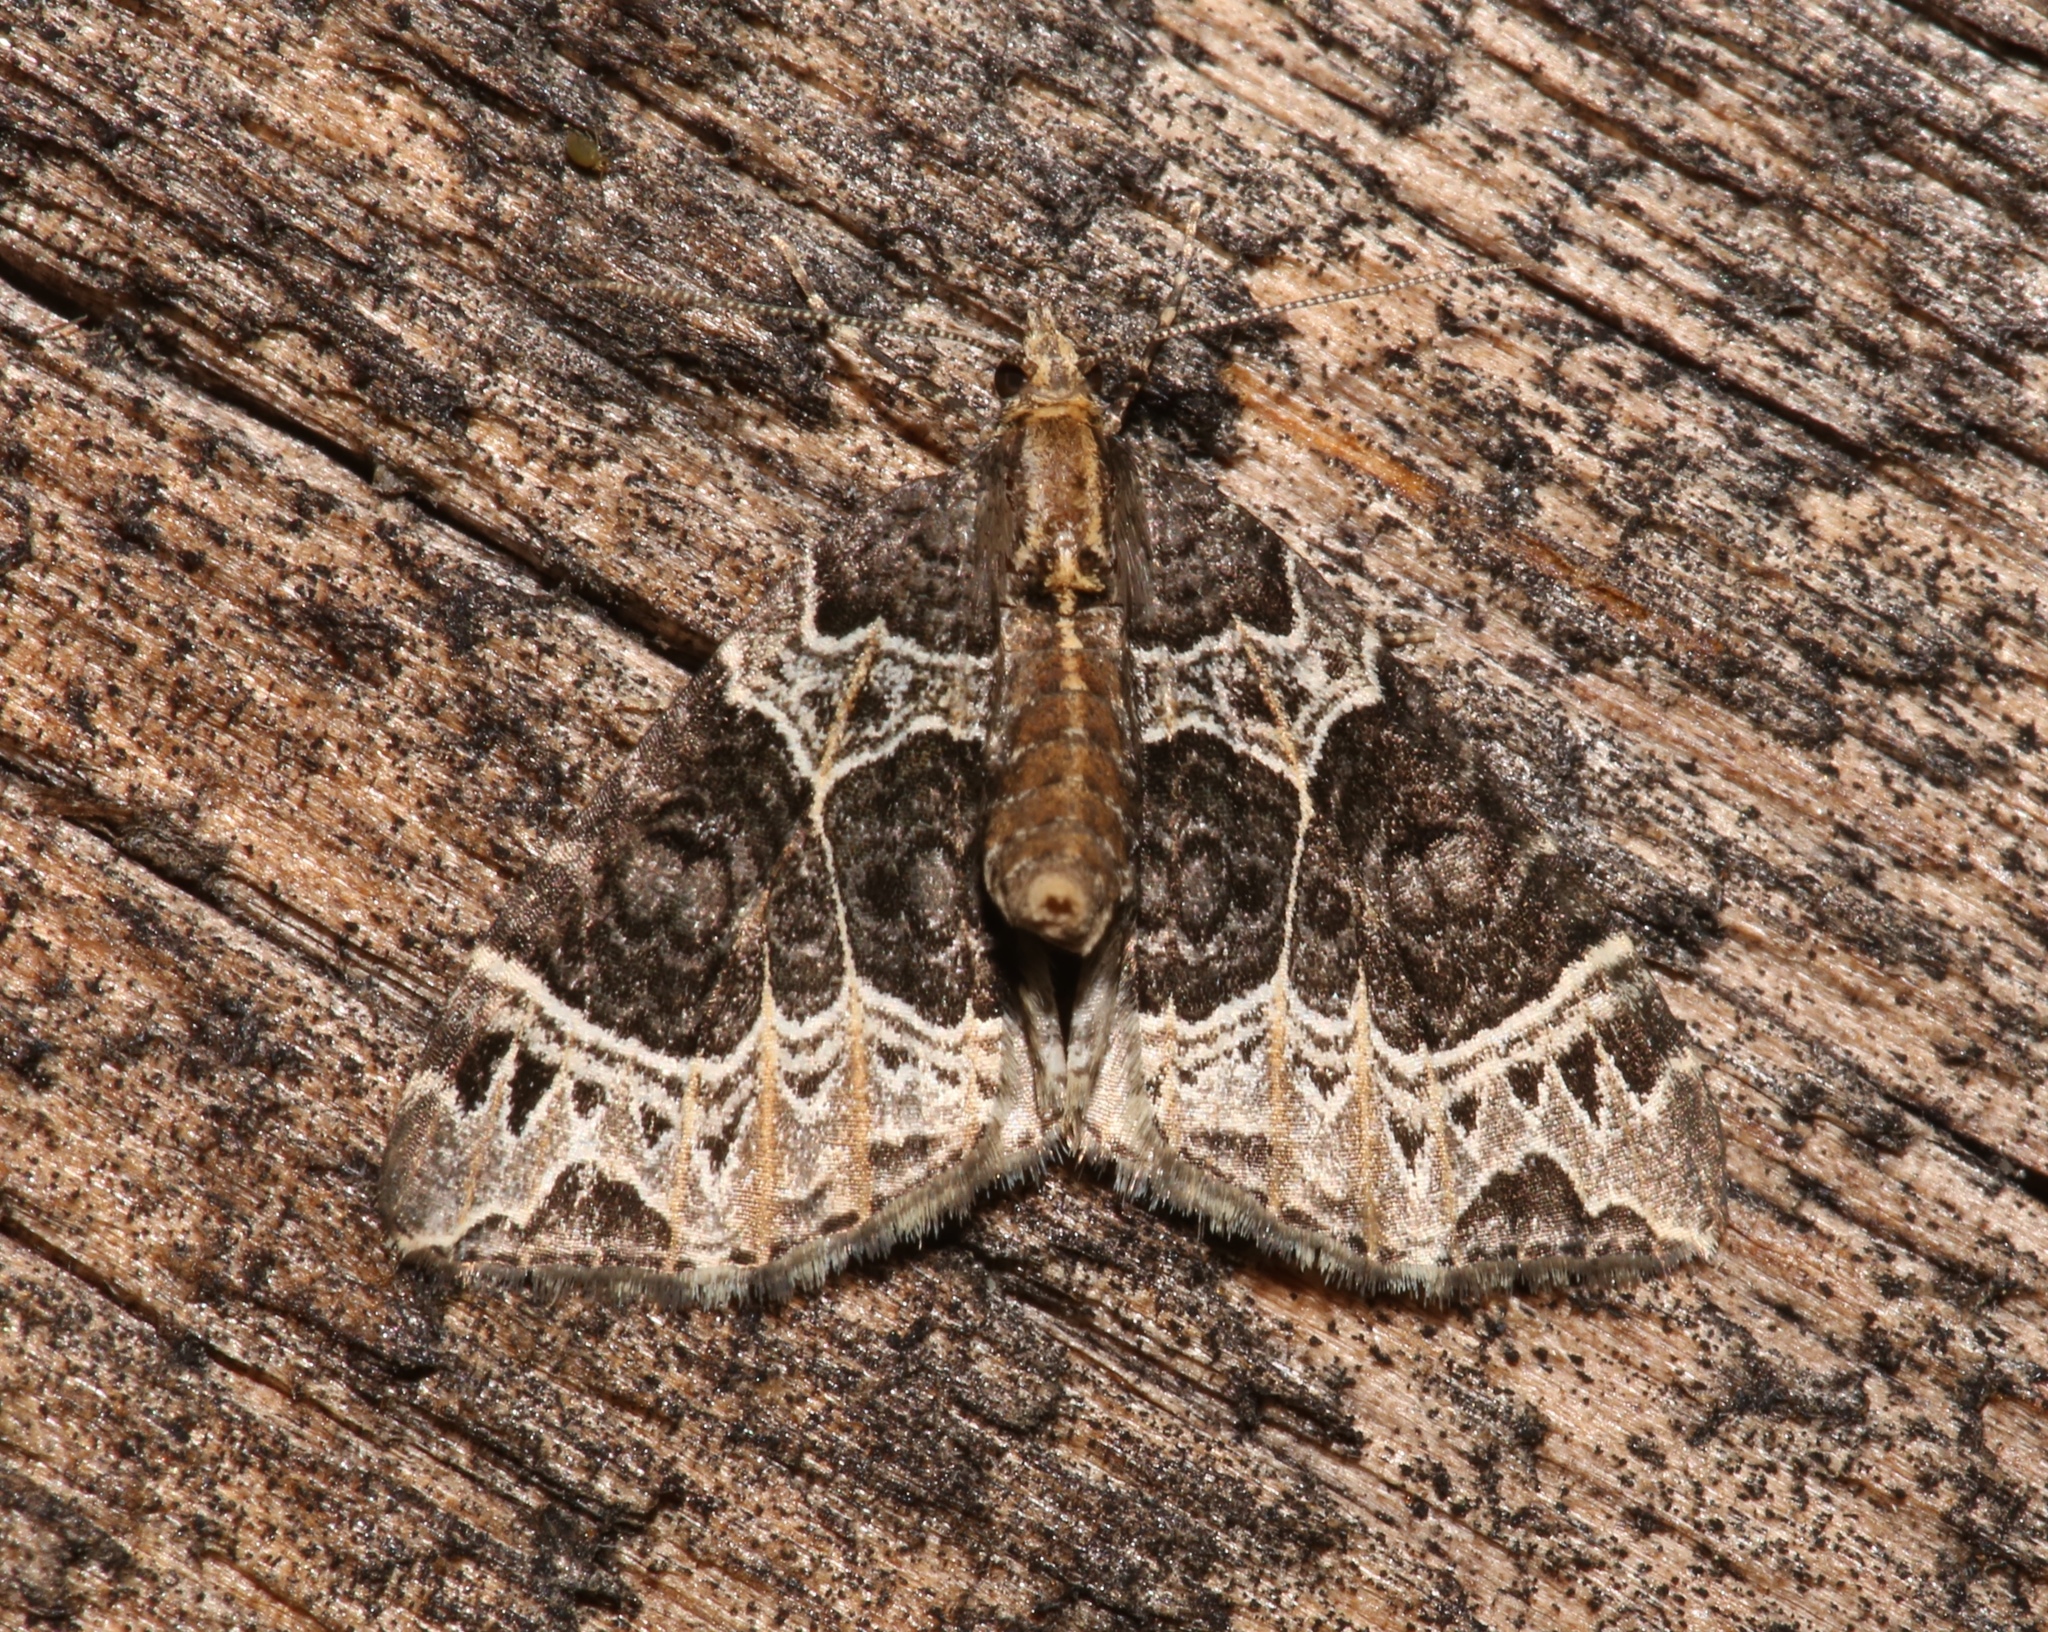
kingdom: Animalia
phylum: Arthropoda
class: Insecta
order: Lepidoptera
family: Geometridae
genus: Ecliptopera
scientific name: Ecliptopera silaceata
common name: Small phoenix
